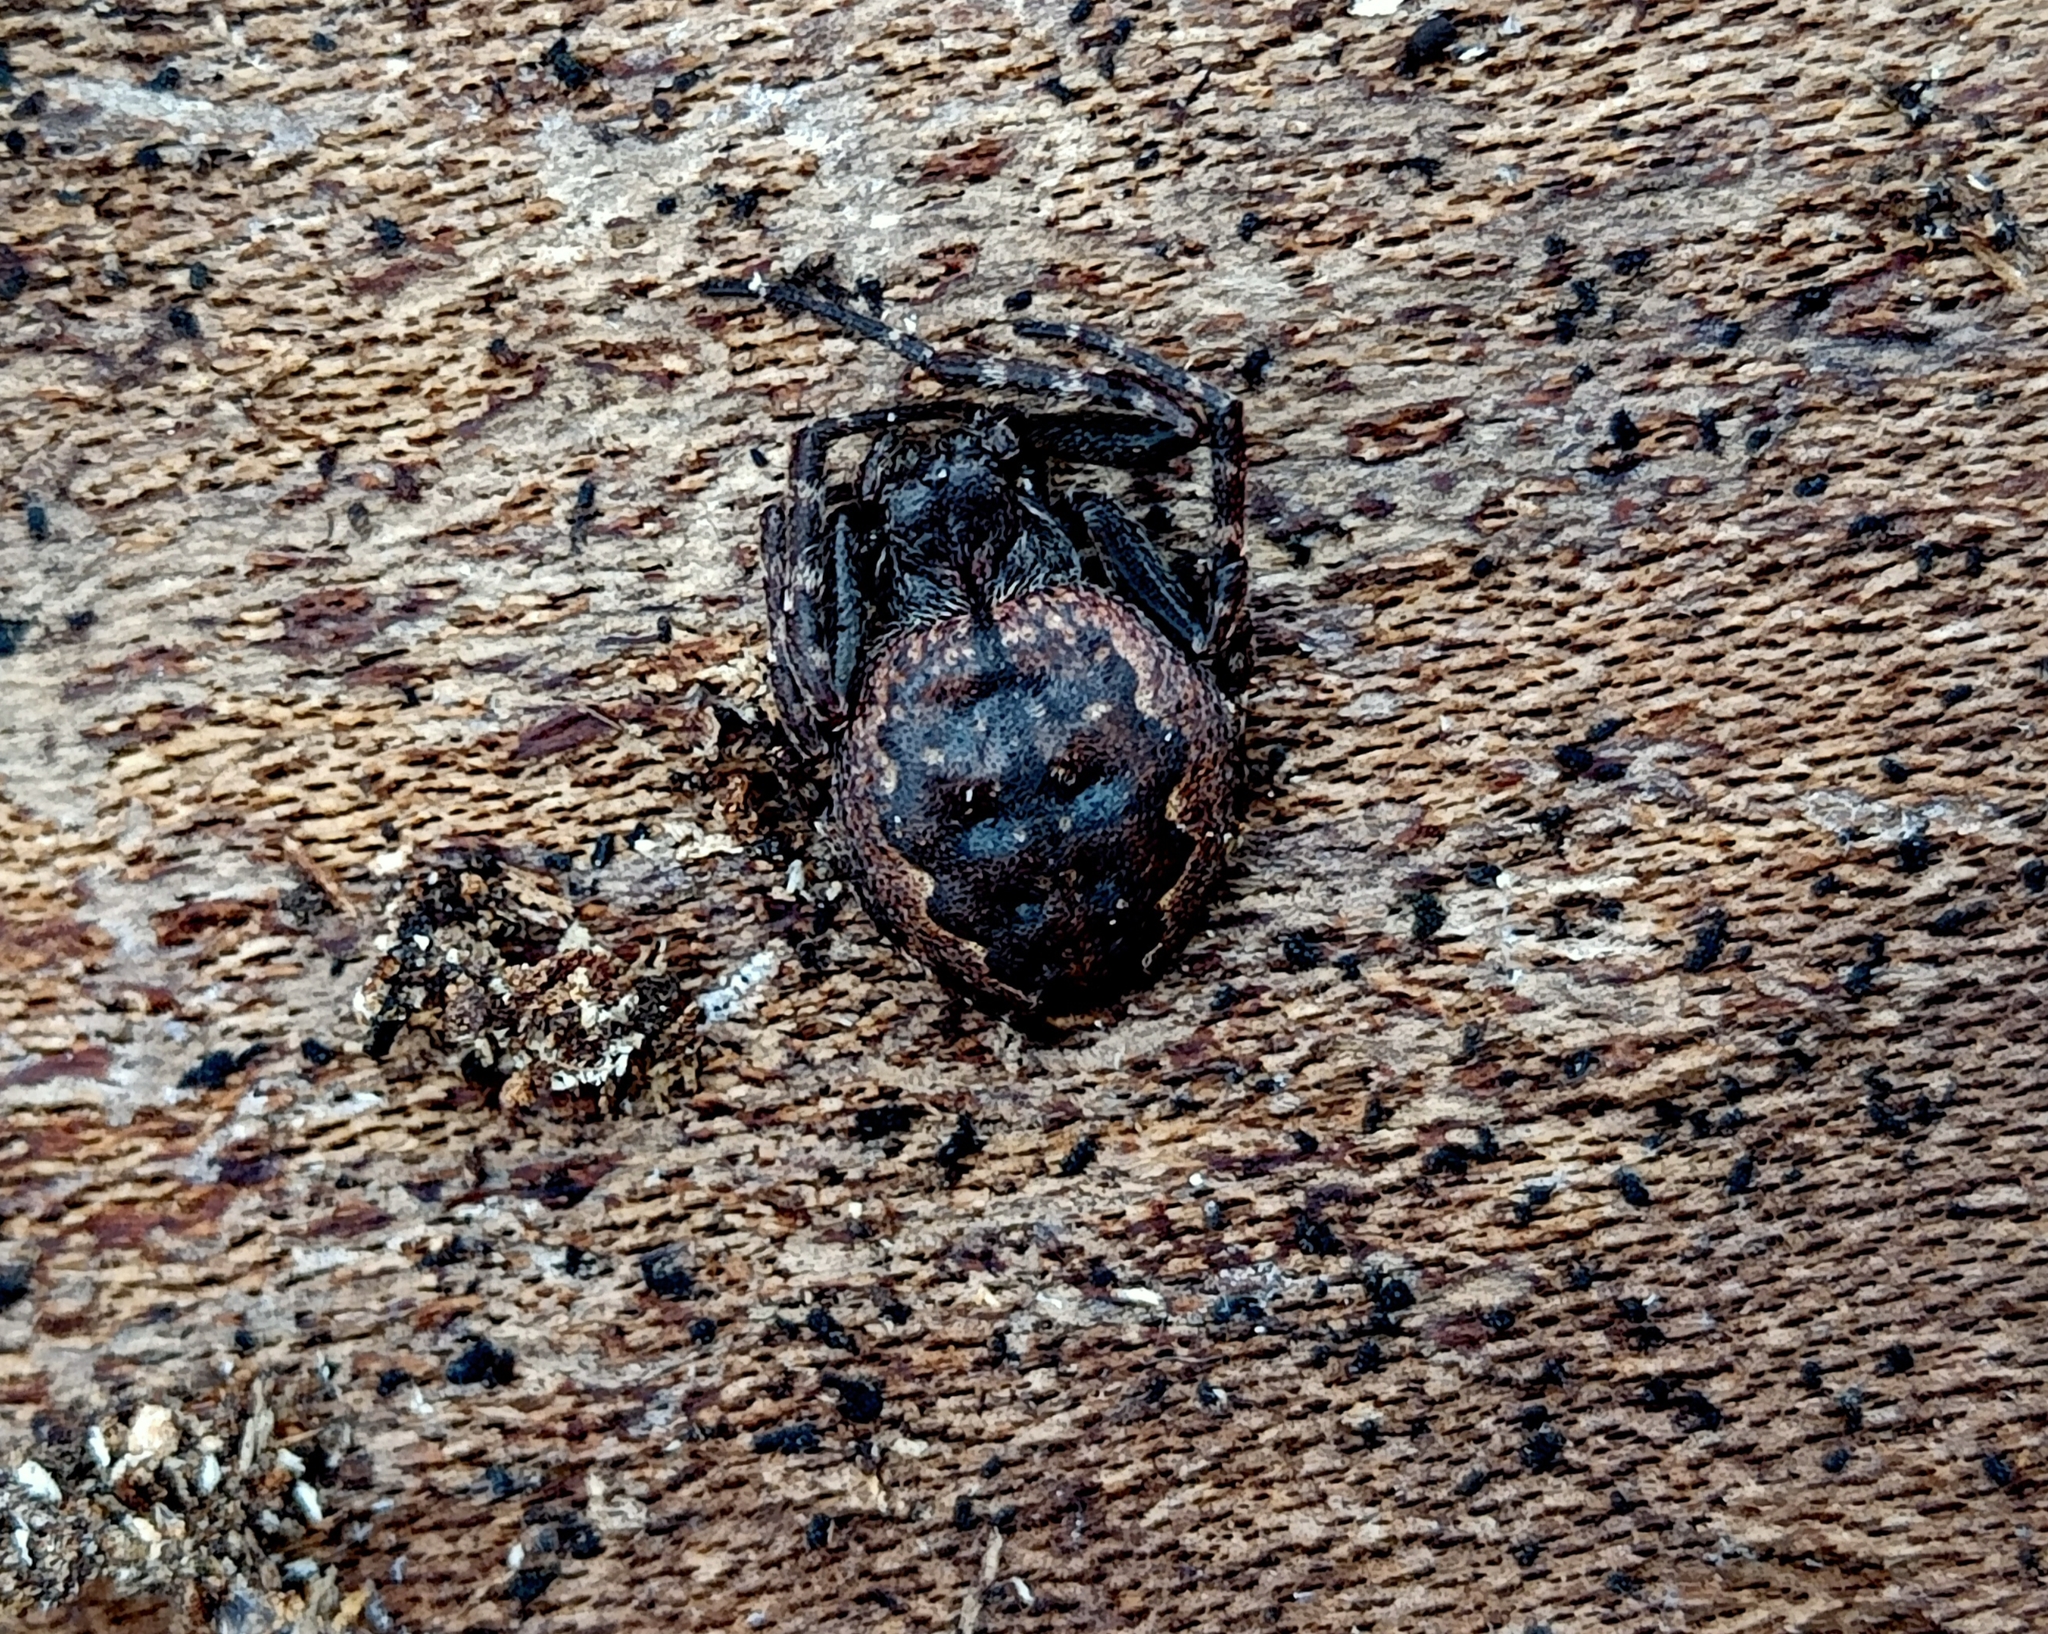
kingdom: Animalia
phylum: Arthropoda
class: Arachnida
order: Araneae
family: Araneidae
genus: Nuctenea
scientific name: Nuctenea umbratica
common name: Toad spider
